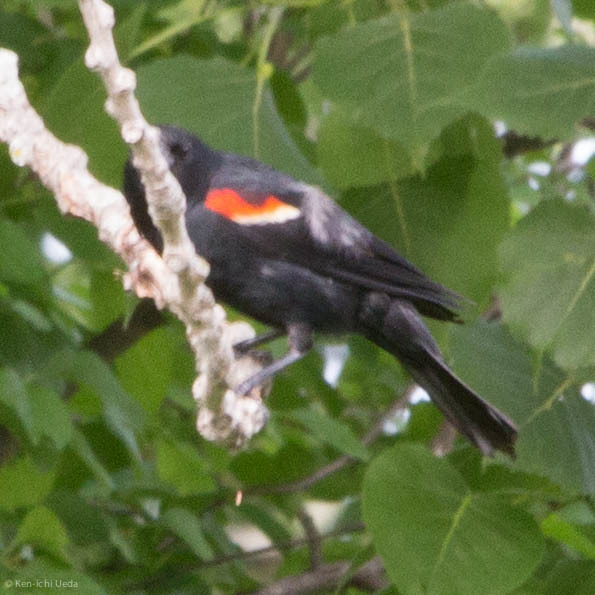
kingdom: Animalia
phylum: Chordata
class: Aves
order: Passeriformes
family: Icteridae
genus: Agelaius
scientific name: Agelaius phoeniceus
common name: Red-winged blackbird
